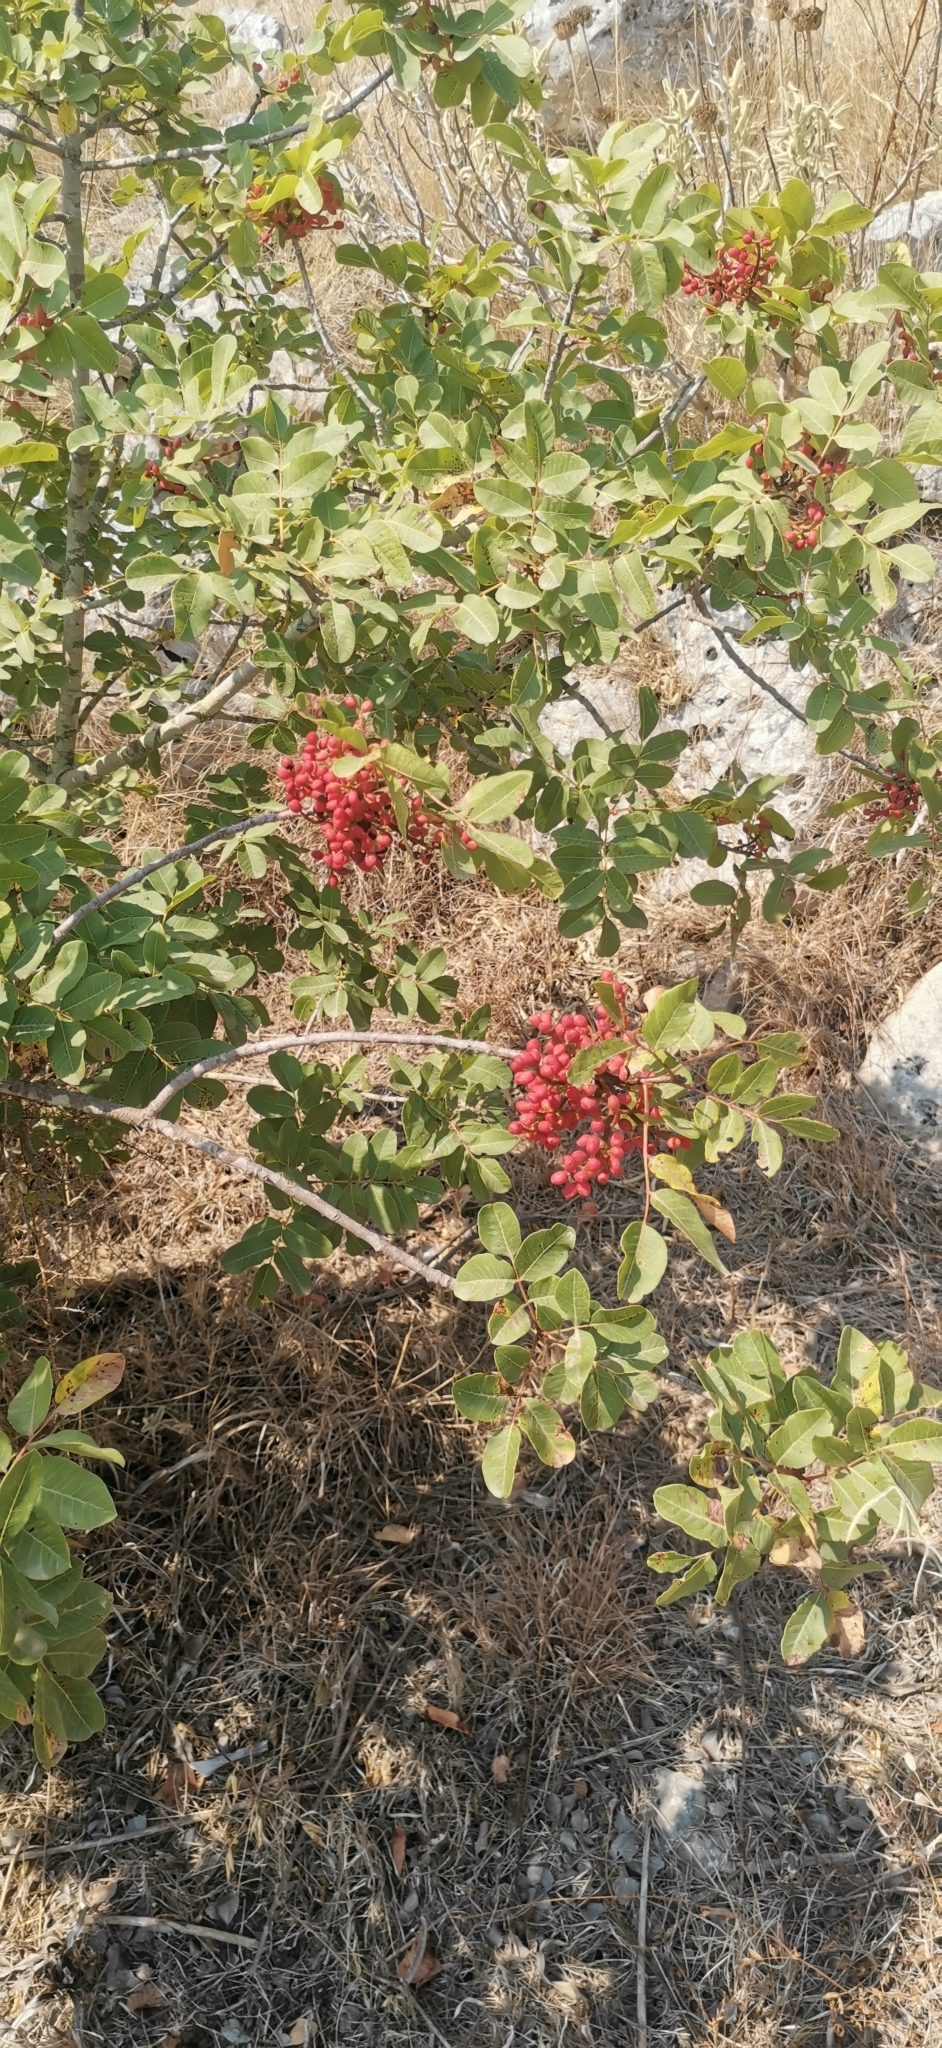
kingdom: Plantae
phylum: Tracheophyta
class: Magnoliopsida
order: Sapindales
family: Anacardiaceae
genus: Pistacia
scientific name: Pistacia terebinthus
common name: Terebinth
